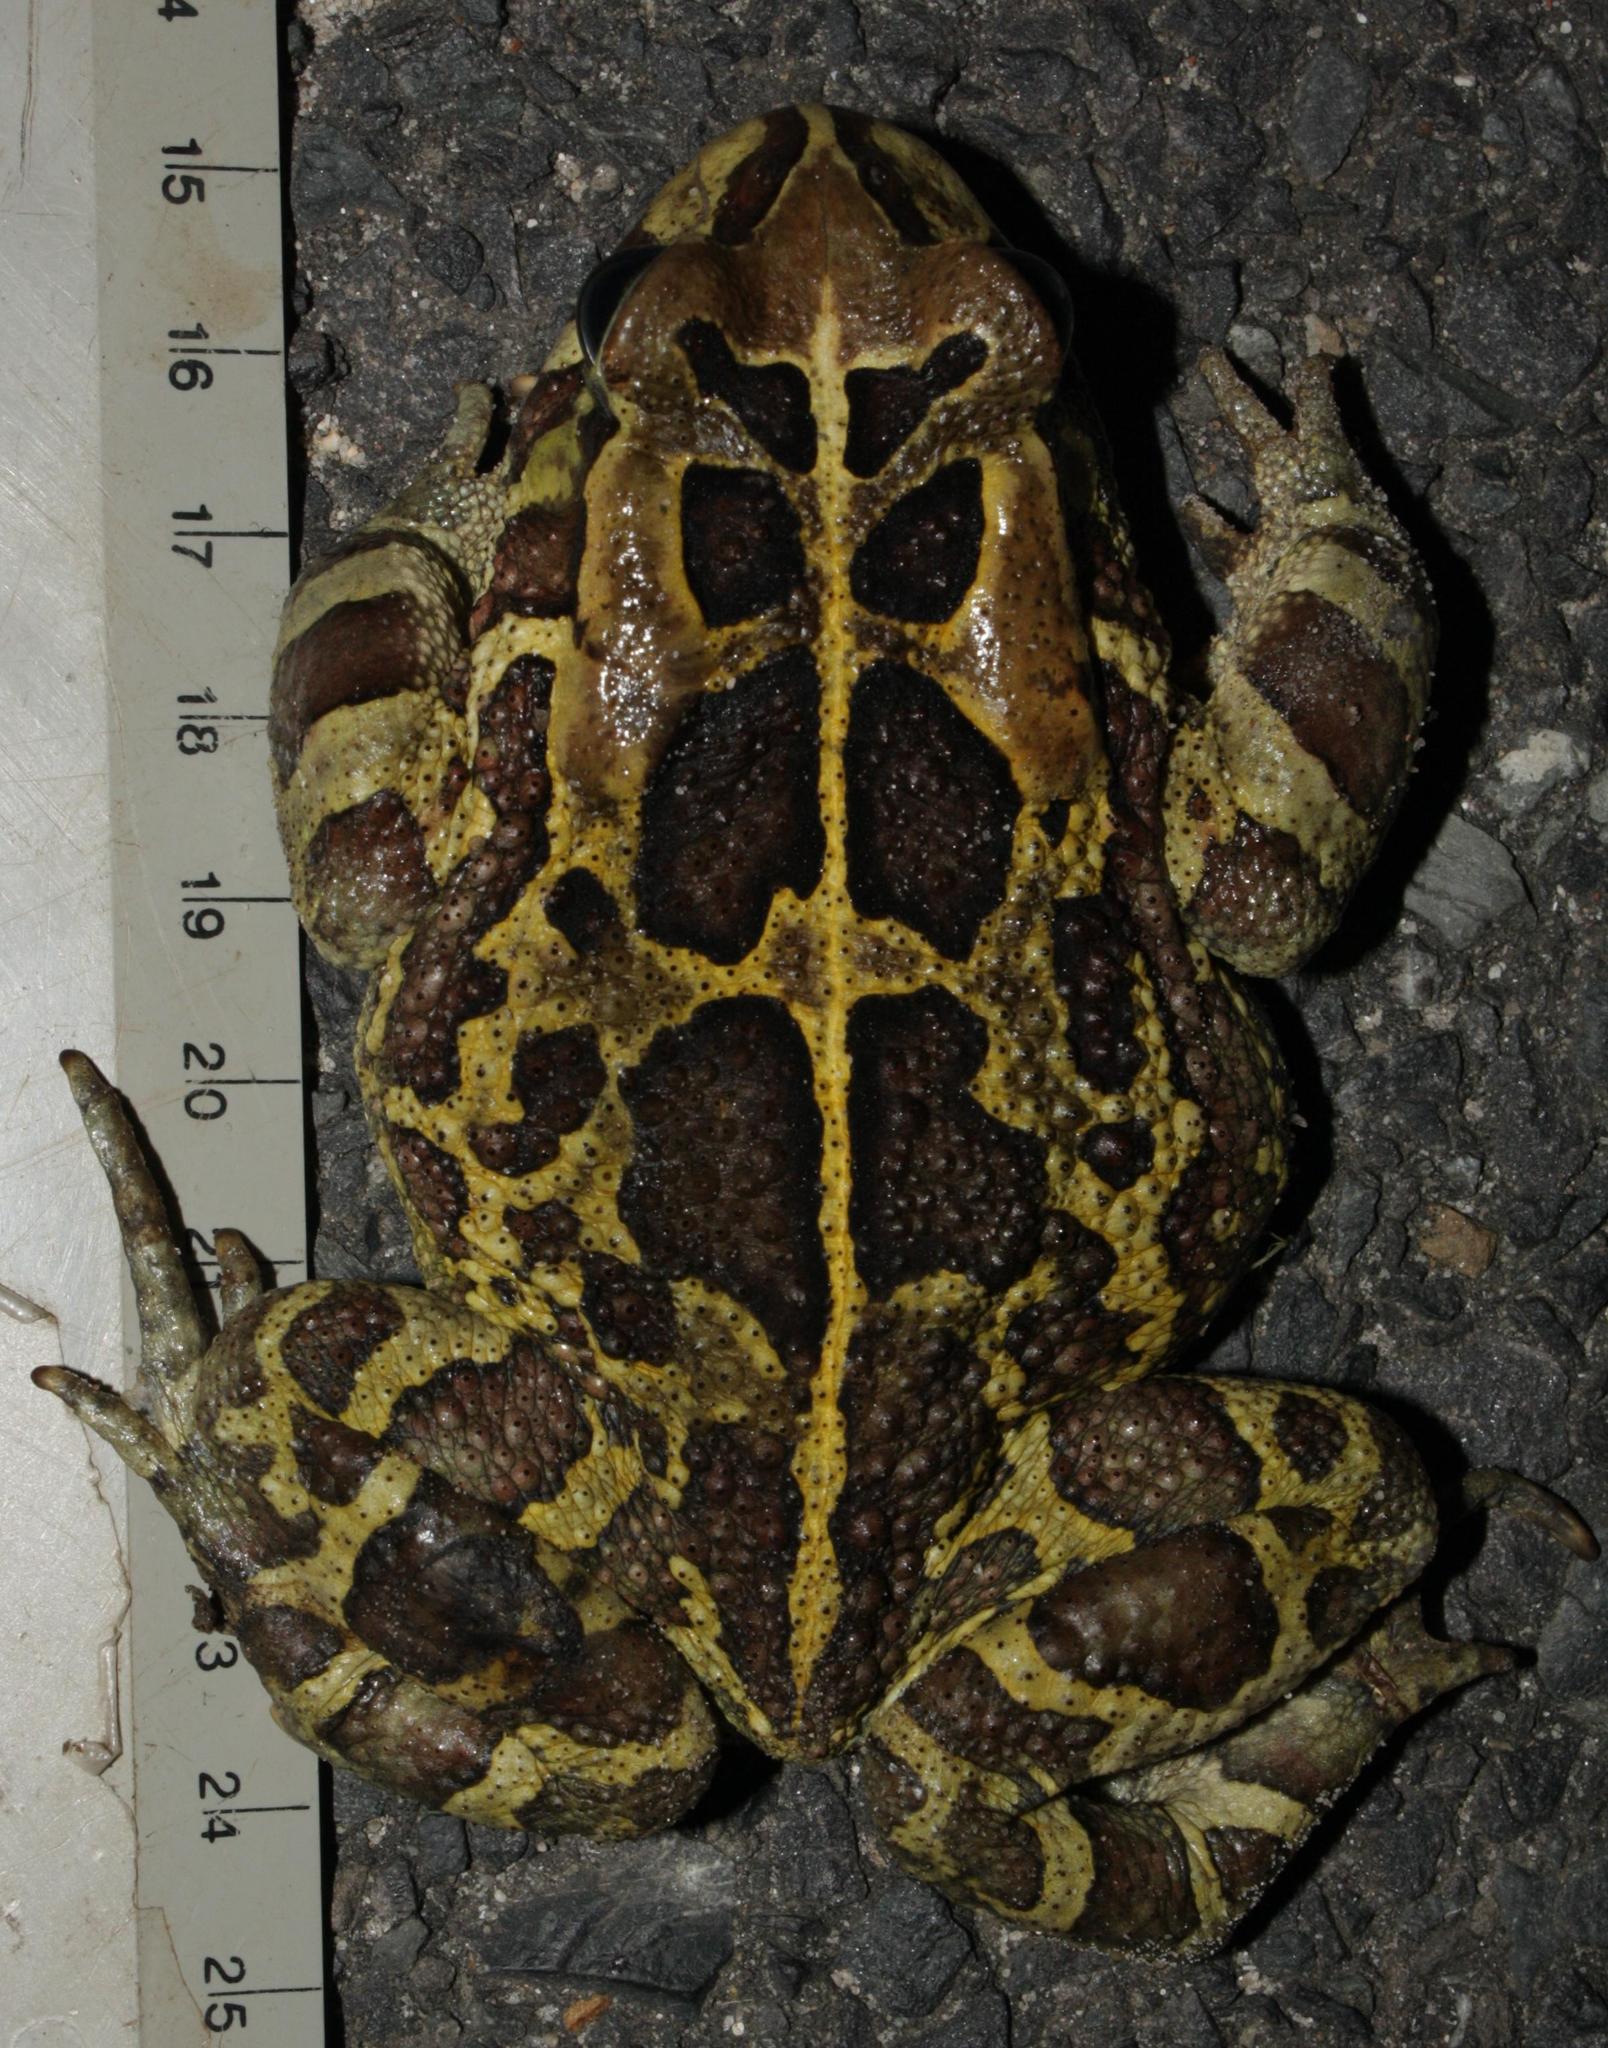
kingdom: Animalia
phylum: Chordata
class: Amphibia
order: Anura
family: Bufonidae
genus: Sclerophrys
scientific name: Sclerophrys pantherina
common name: Panther toad
